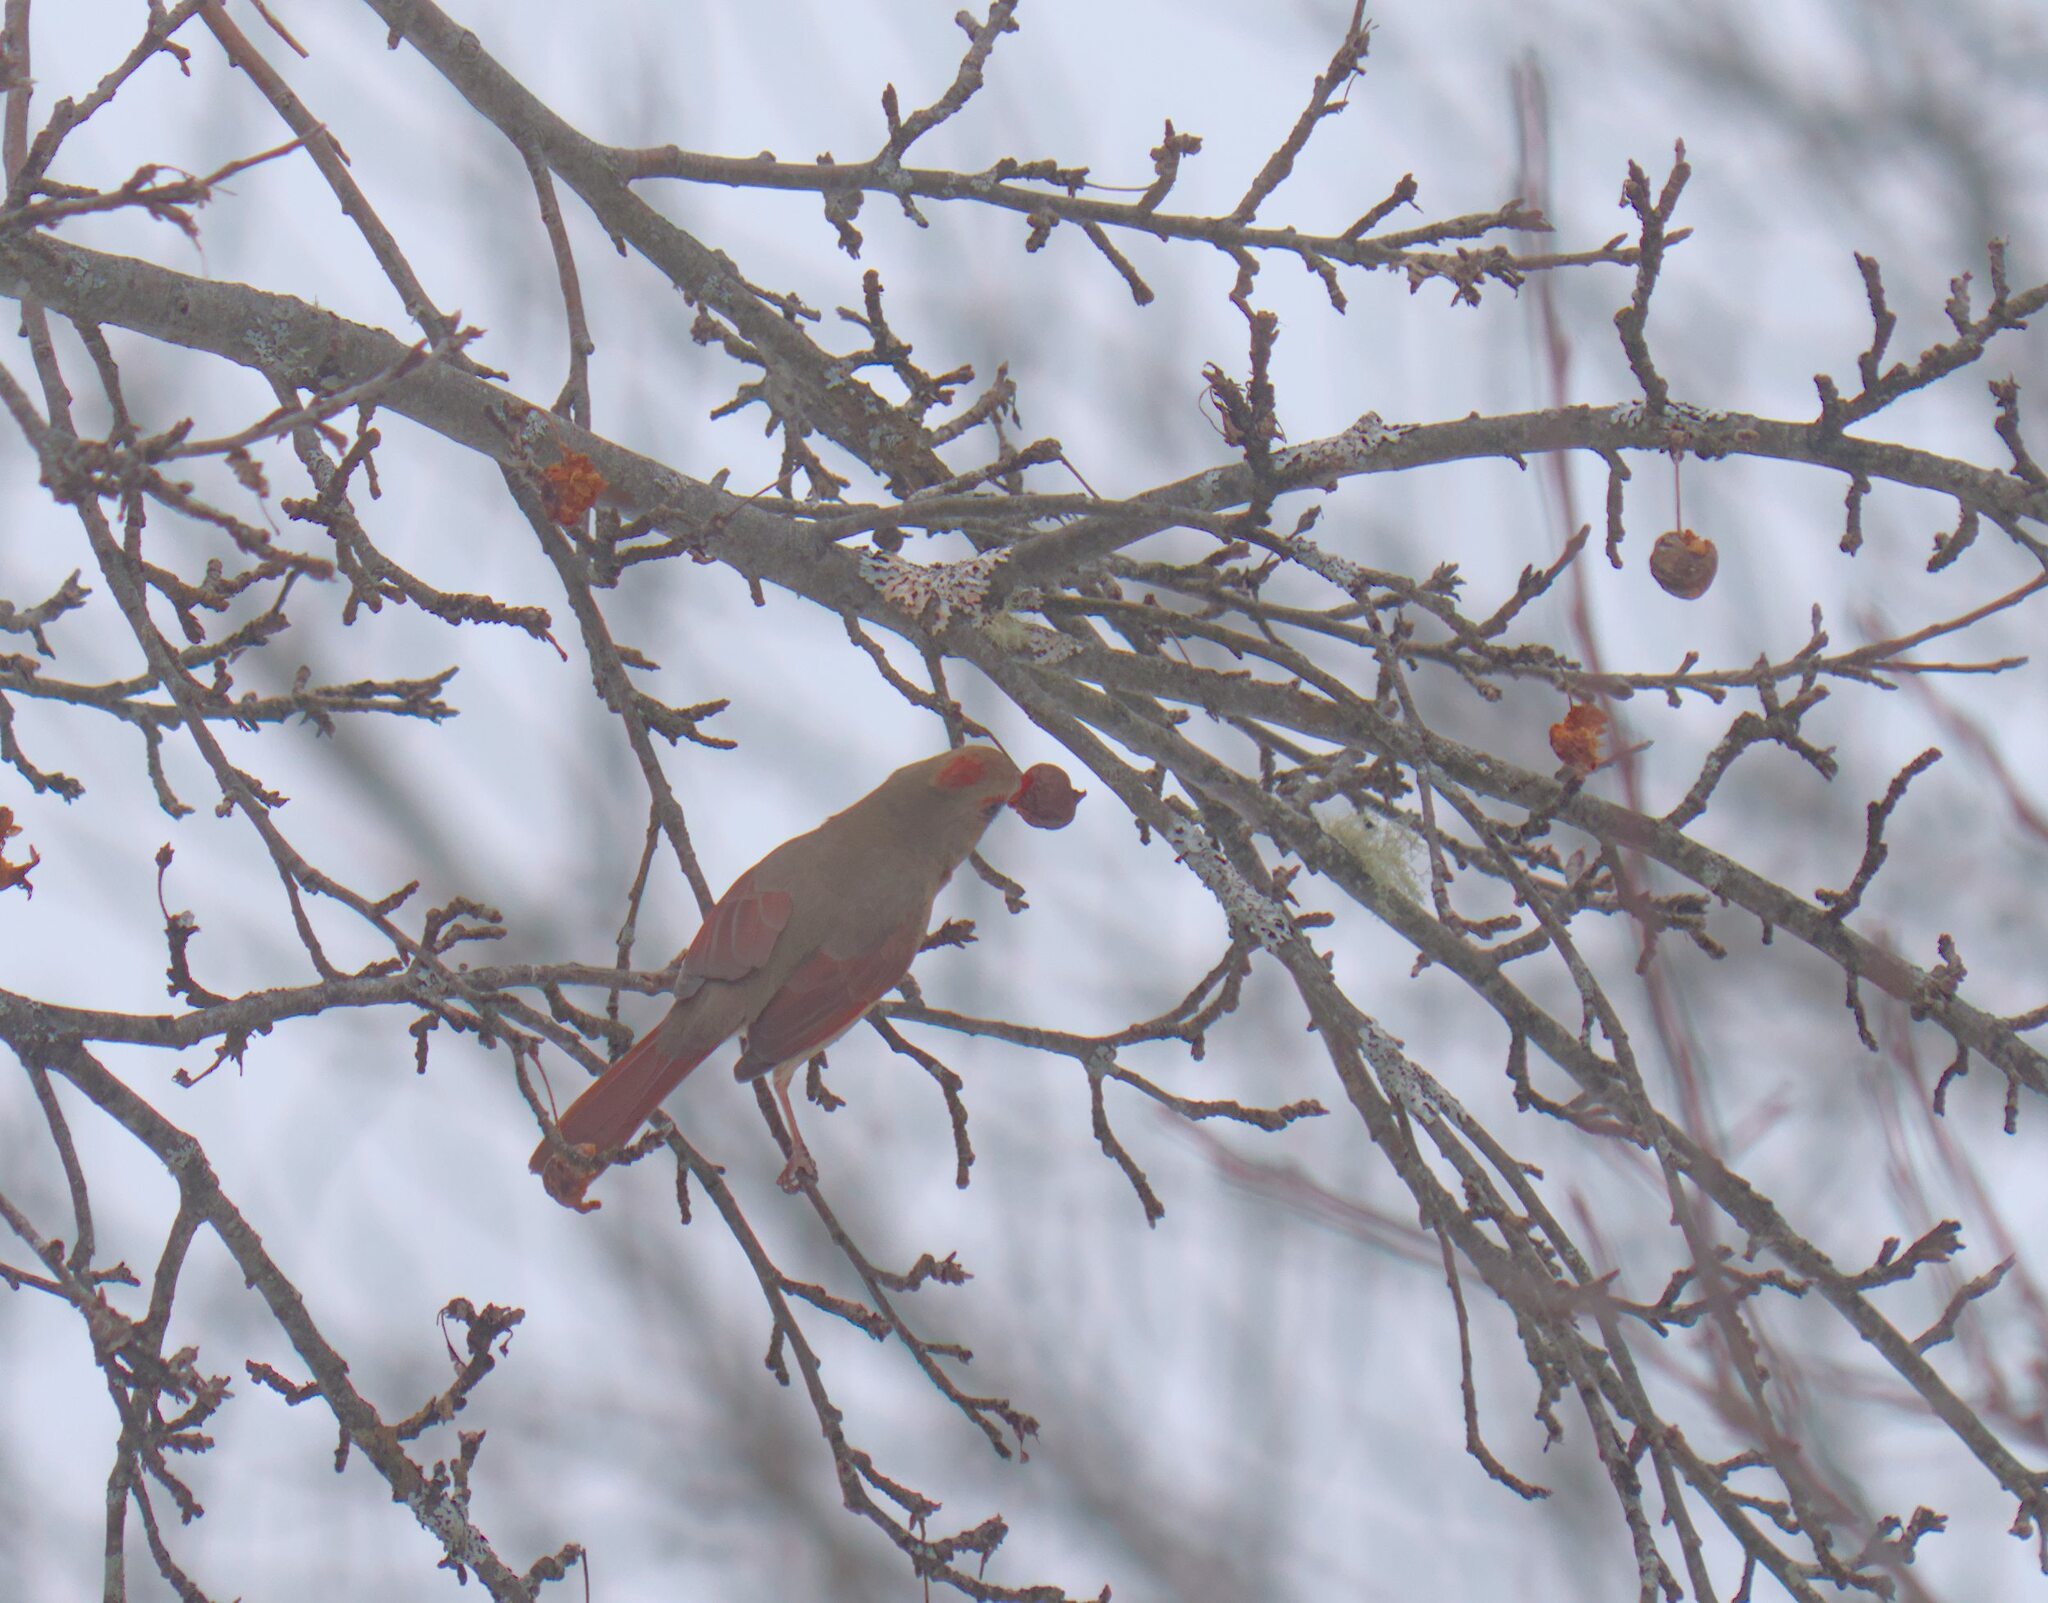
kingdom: Animalia
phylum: Chordata
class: Aves
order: Passeriformes
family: Cardinalidae
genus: Cardinalis
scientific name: Cardinalis cardinalis
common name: Northern cardinal
